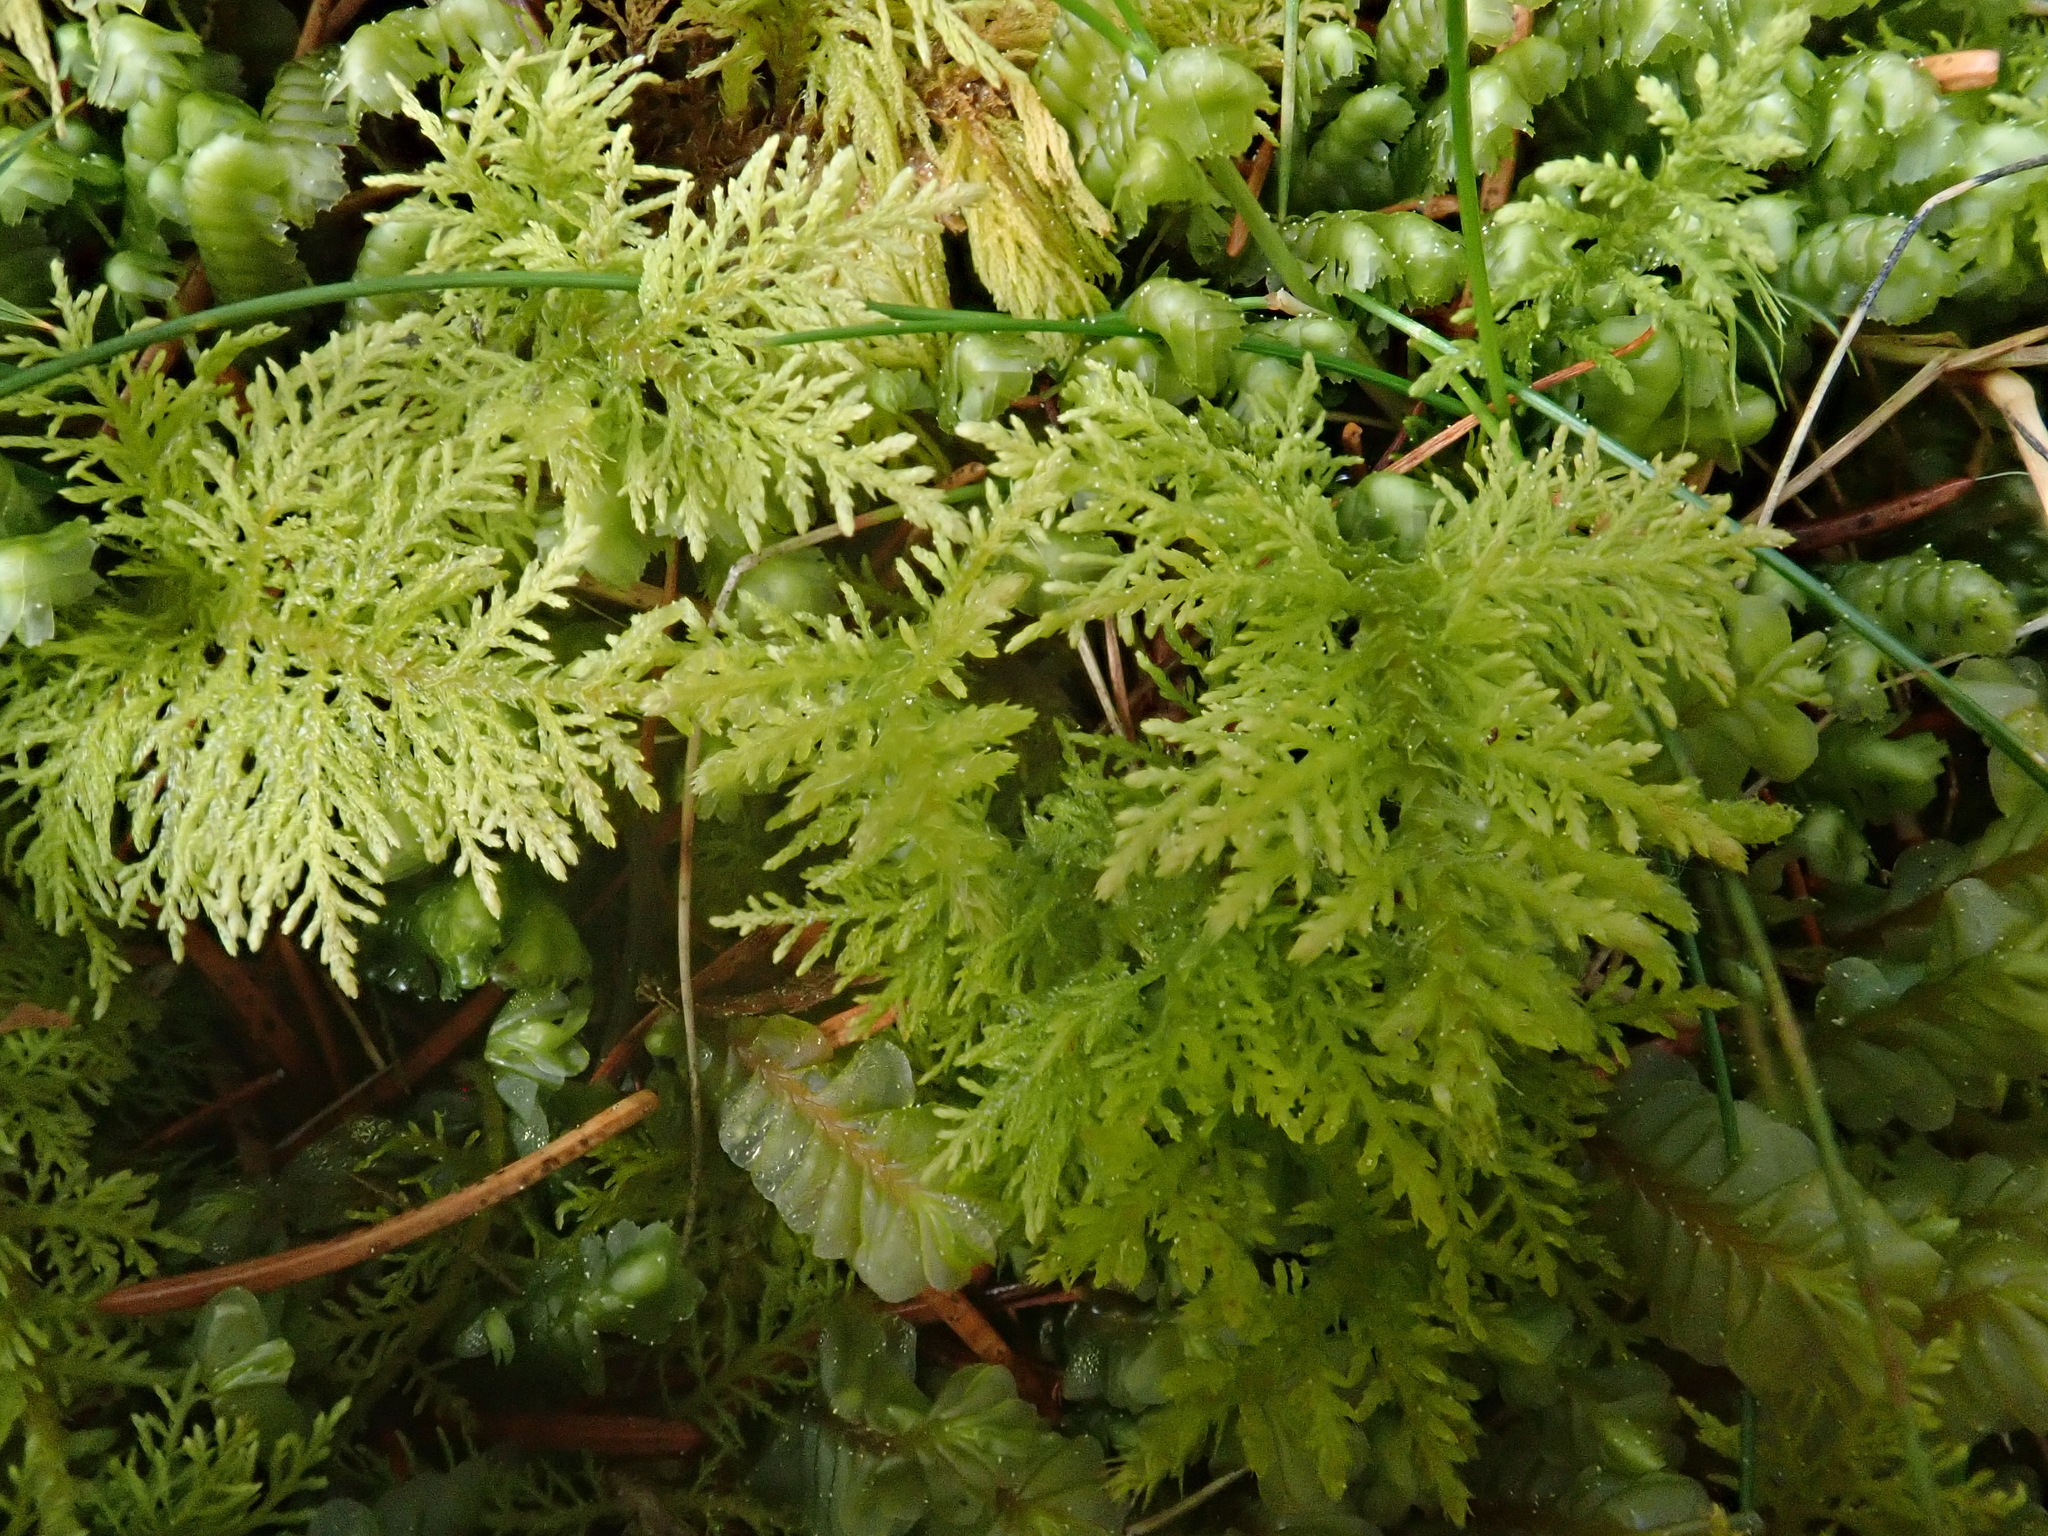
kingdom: Plantae
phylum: Bryophyta
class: Bryopsida
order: Hypnales
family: Thuidiaceae
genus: Thuidium
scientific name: Thuidium tamariscinum
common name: Common tamarisk-moss
